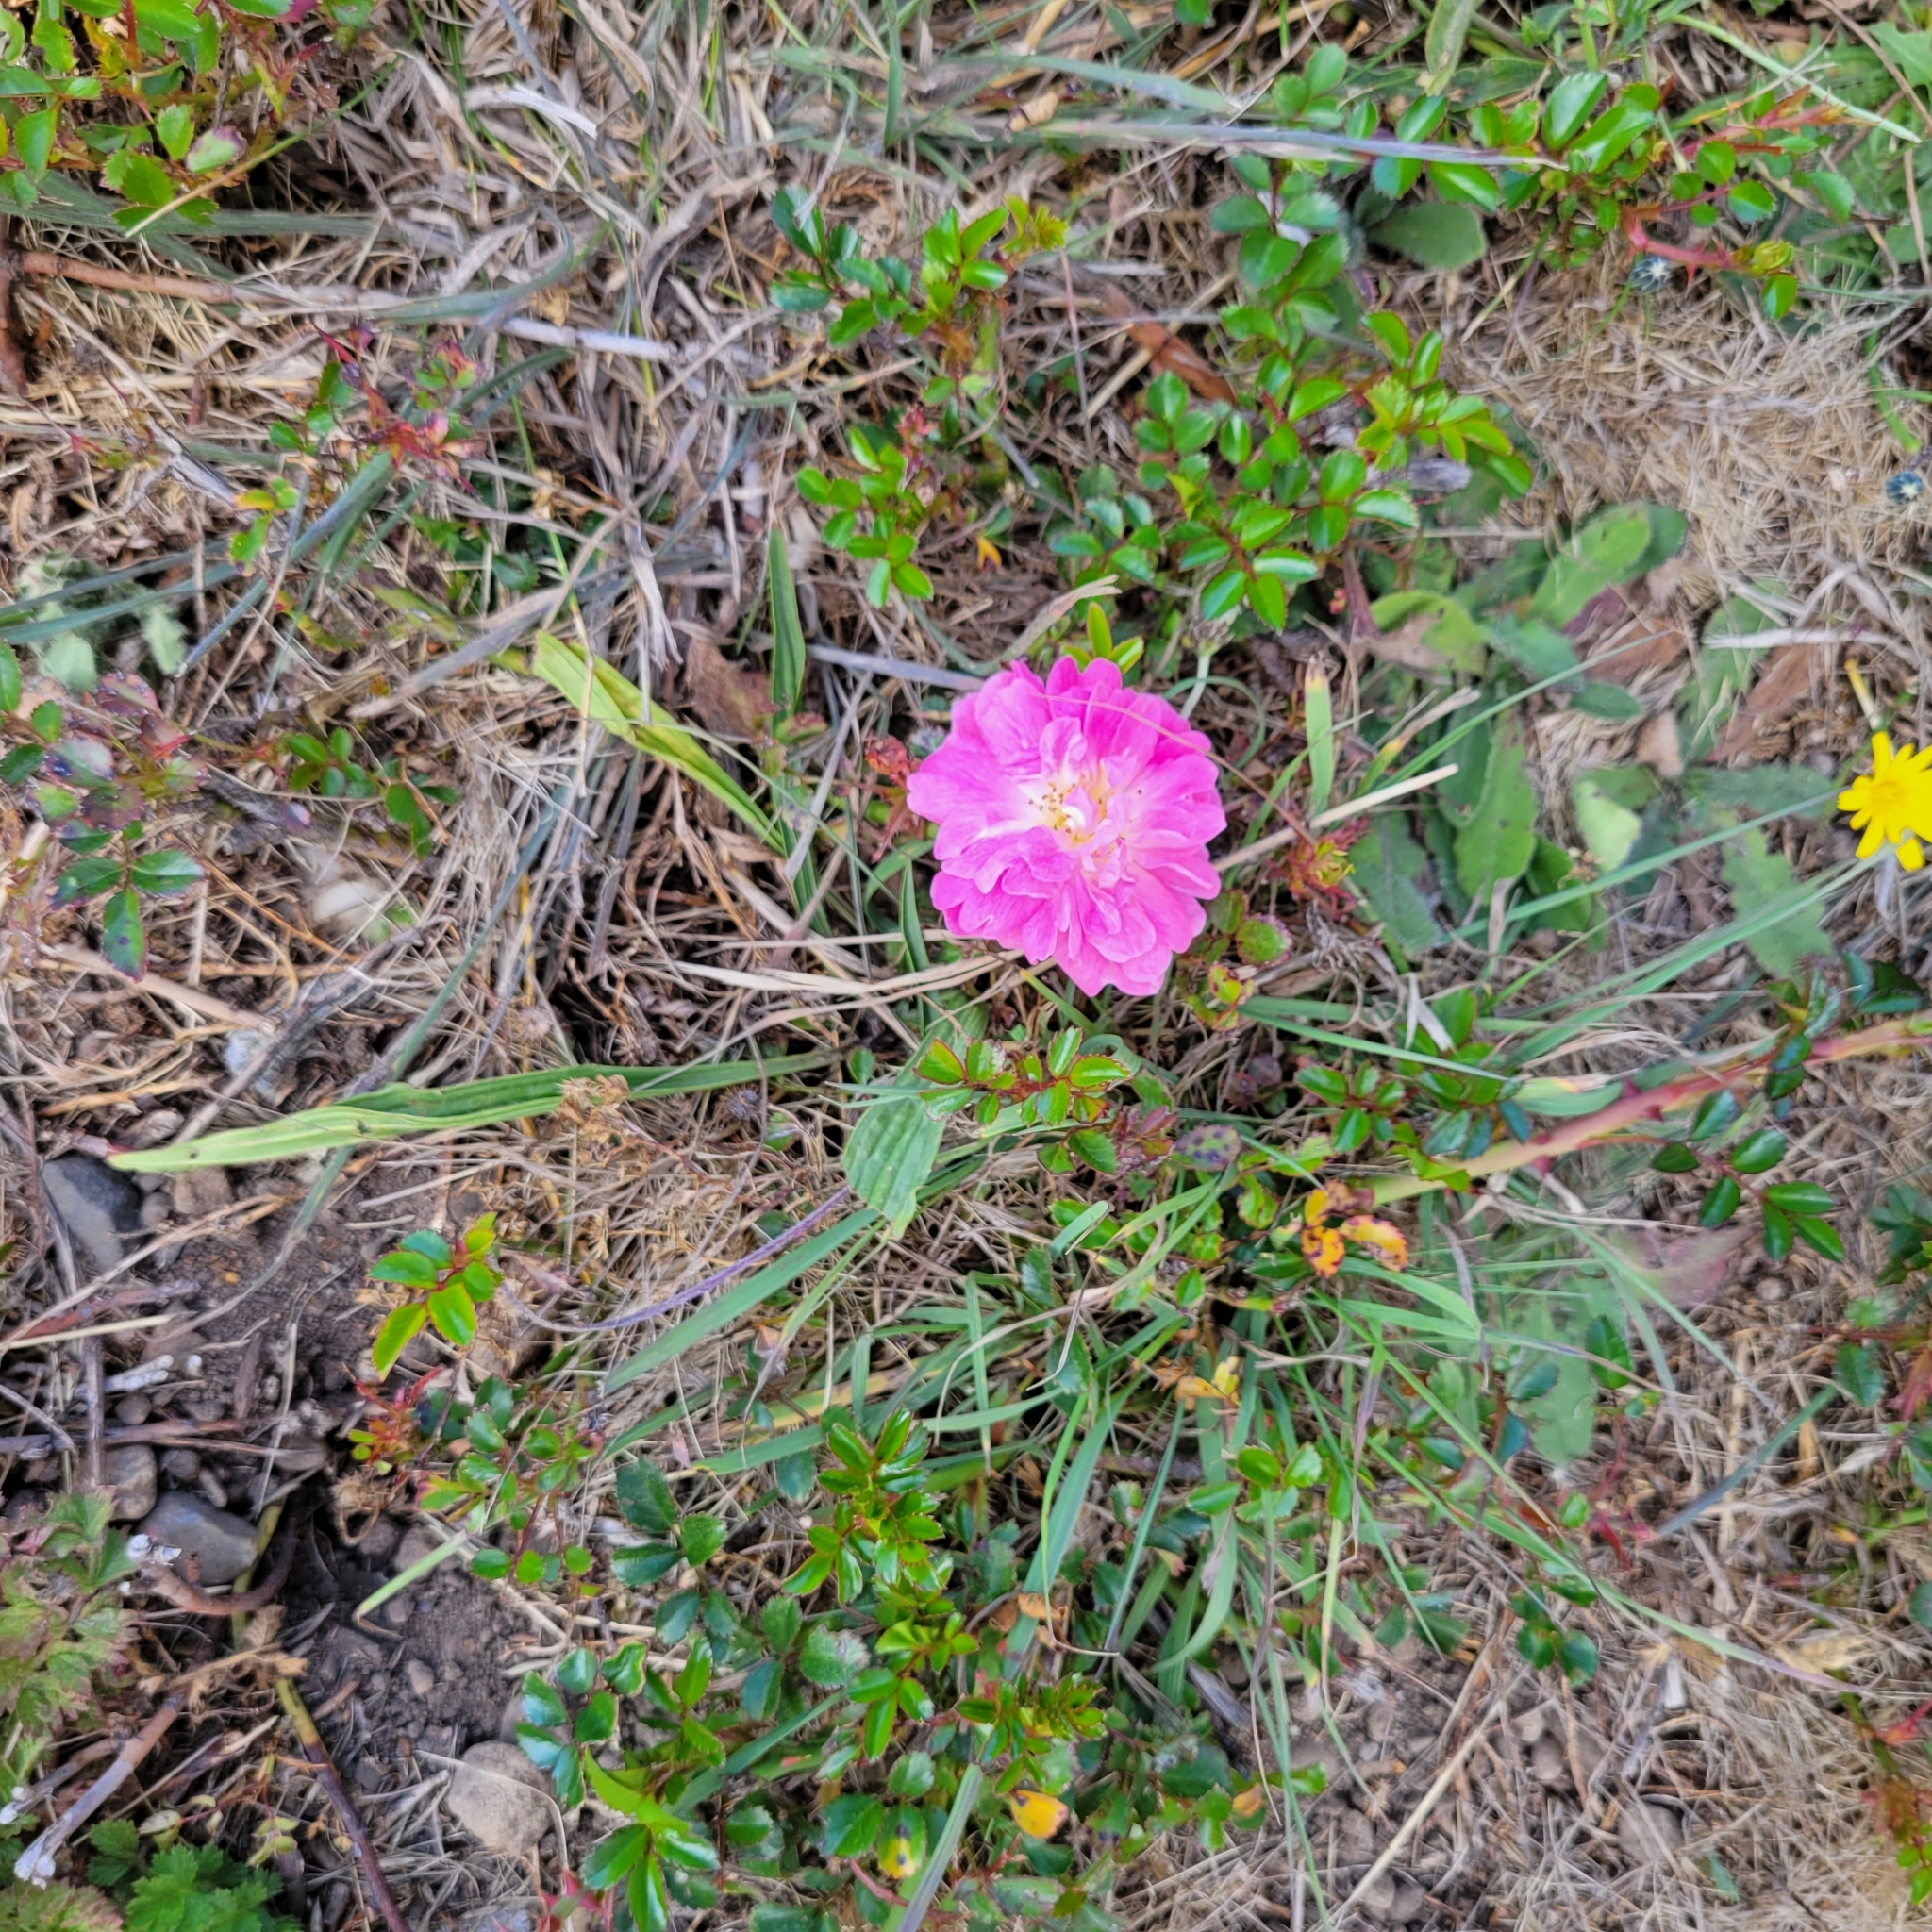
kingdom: Plantae
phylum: Tracheophyta
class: Magnoliopsida
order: Myrtales
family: Onagraceae
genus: Clarkia
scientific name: Clarkia amoena
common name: Godetia
